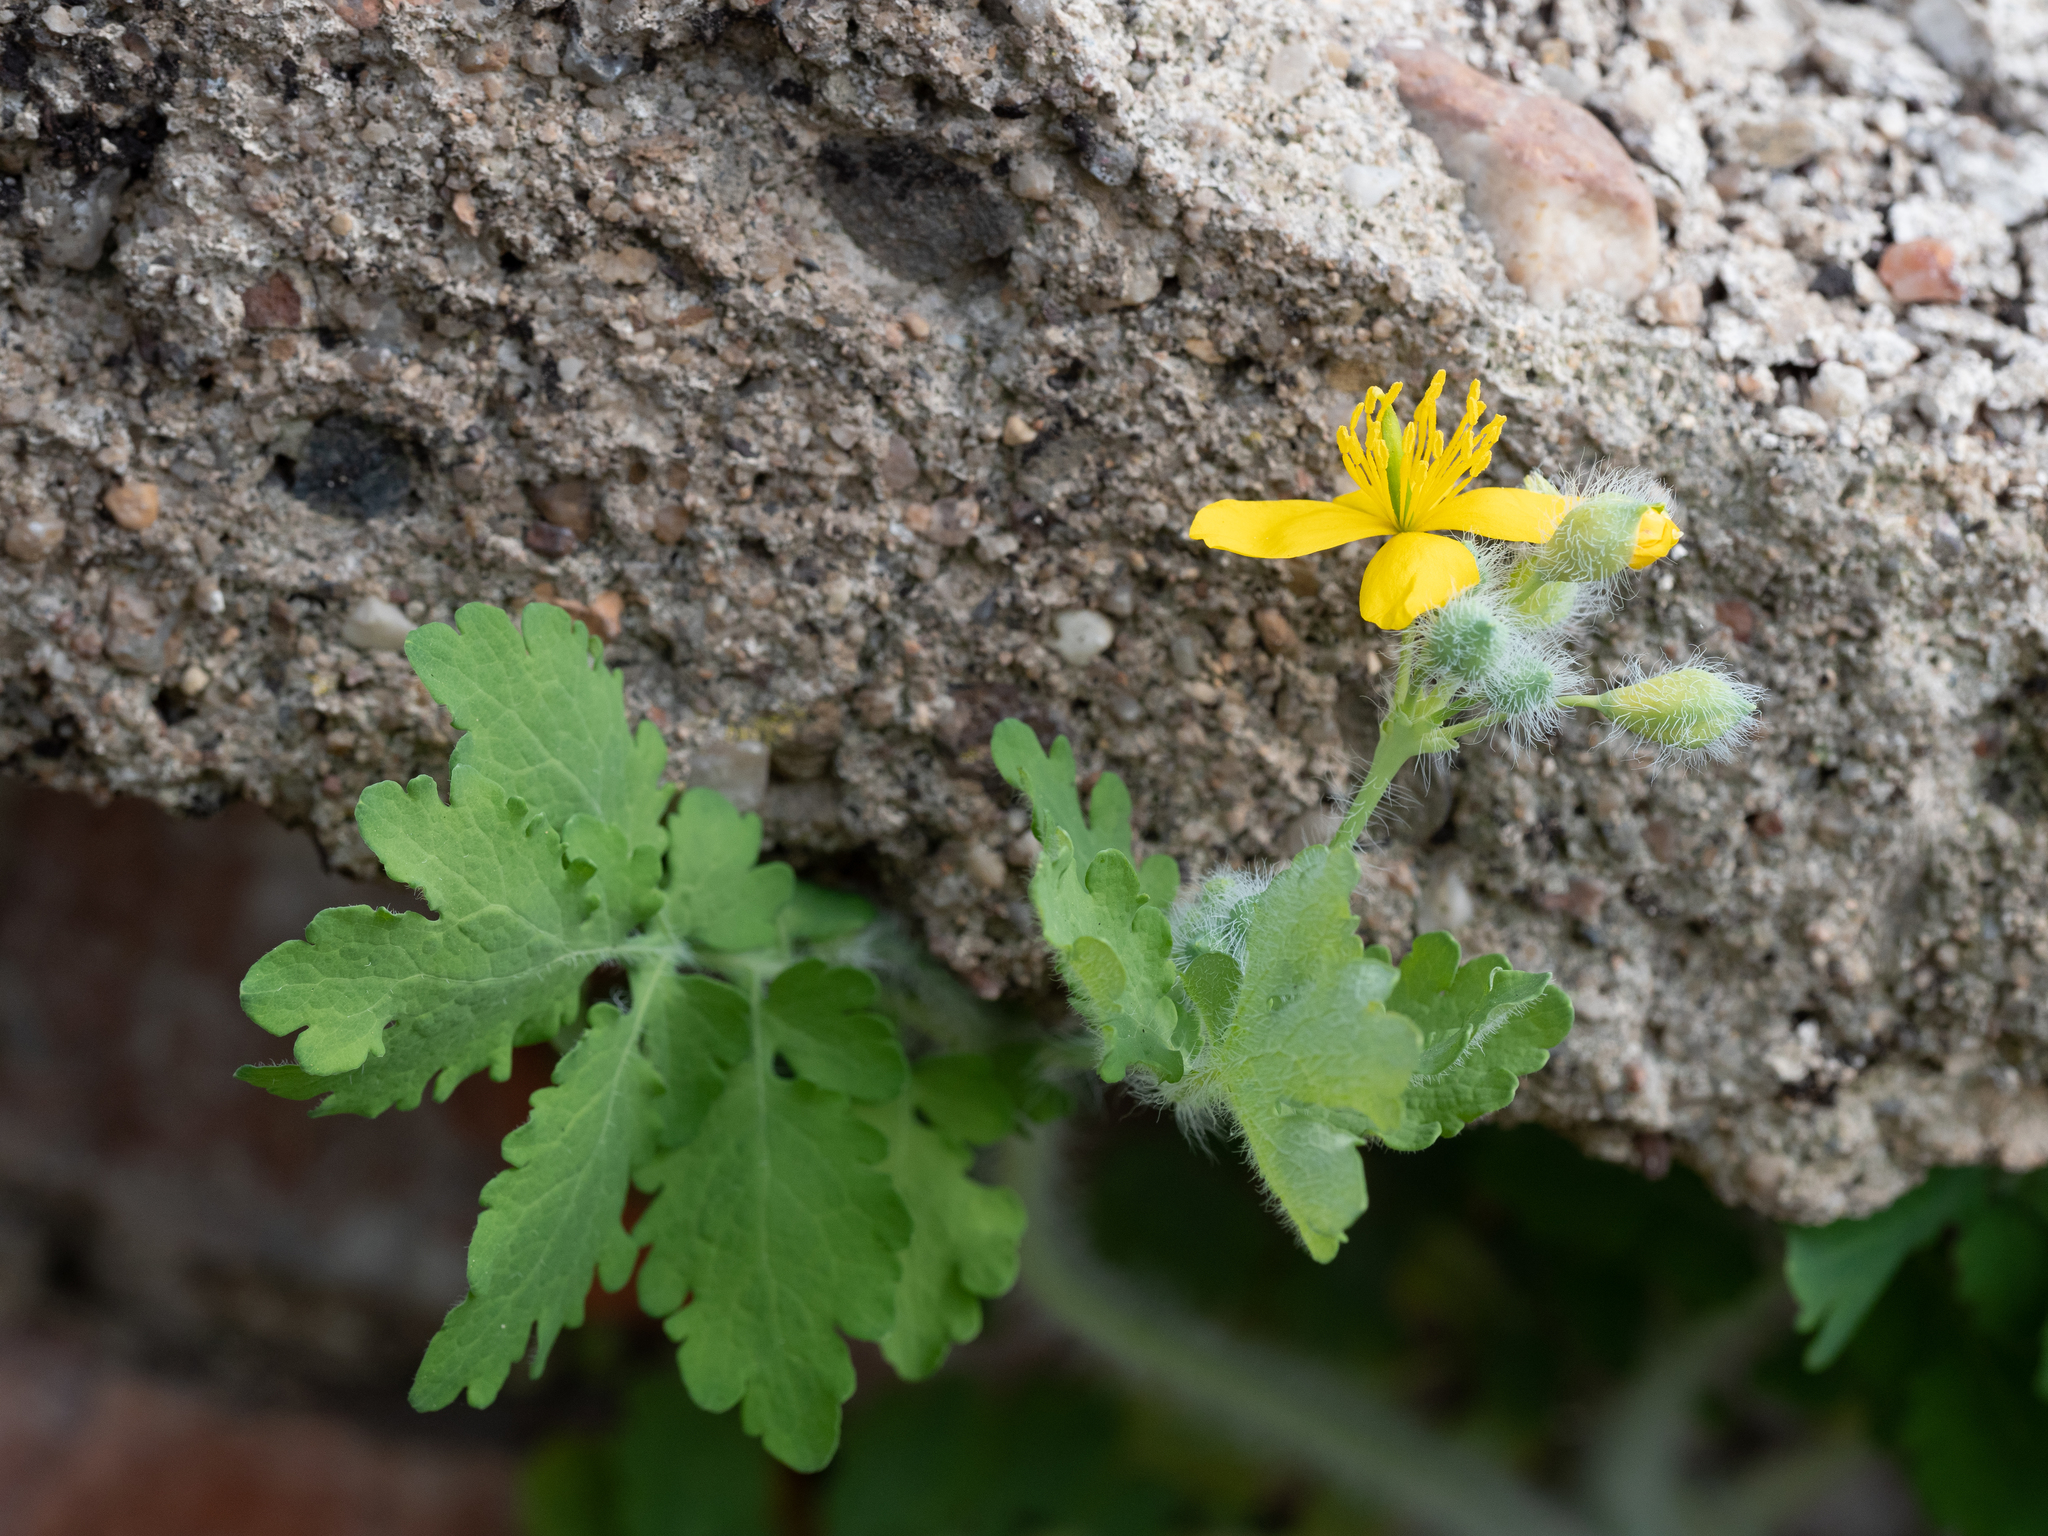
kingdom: Plantae
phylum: Tracheophyta
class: Magnoliopsida
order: Ranunculales
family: Papaveraceae
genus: Chelidonium
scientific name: Chelidonium majus
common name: Greater celandine
